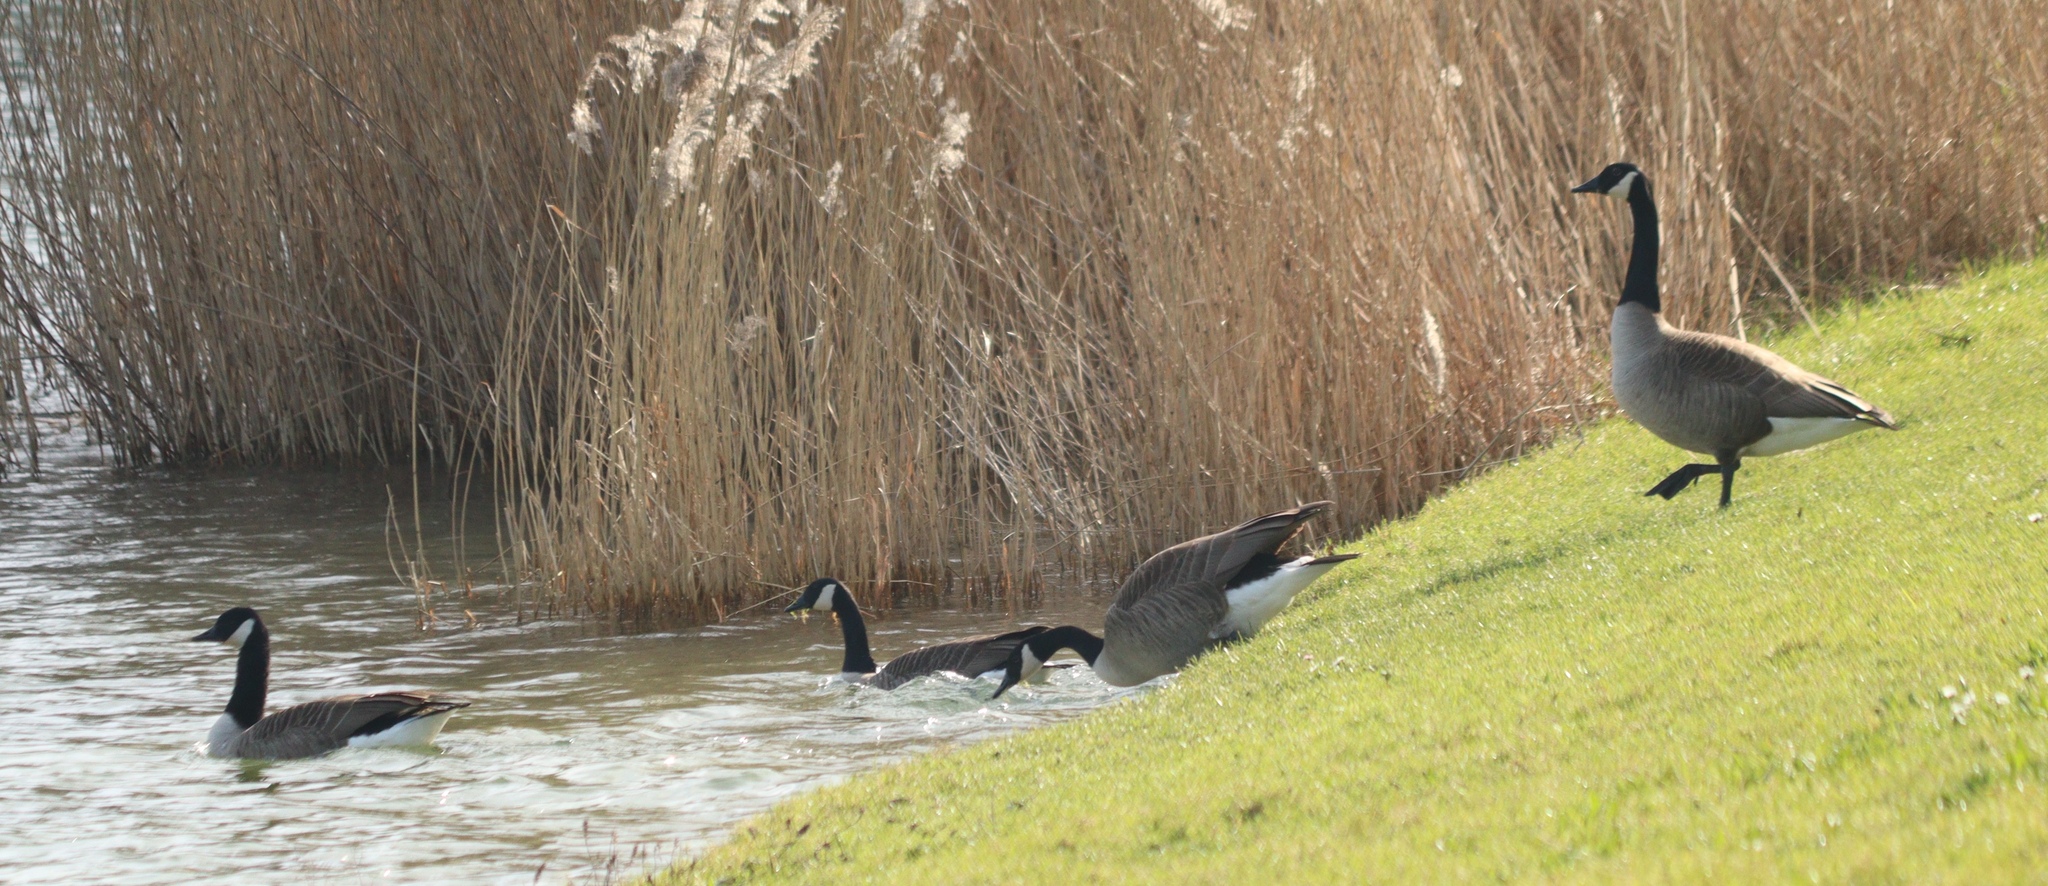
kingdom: Animalia
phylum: Chordata
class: Aves
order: Anseriformes
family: Anatidae
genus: Branta
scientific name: Branta canadensis
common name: Canada goose
